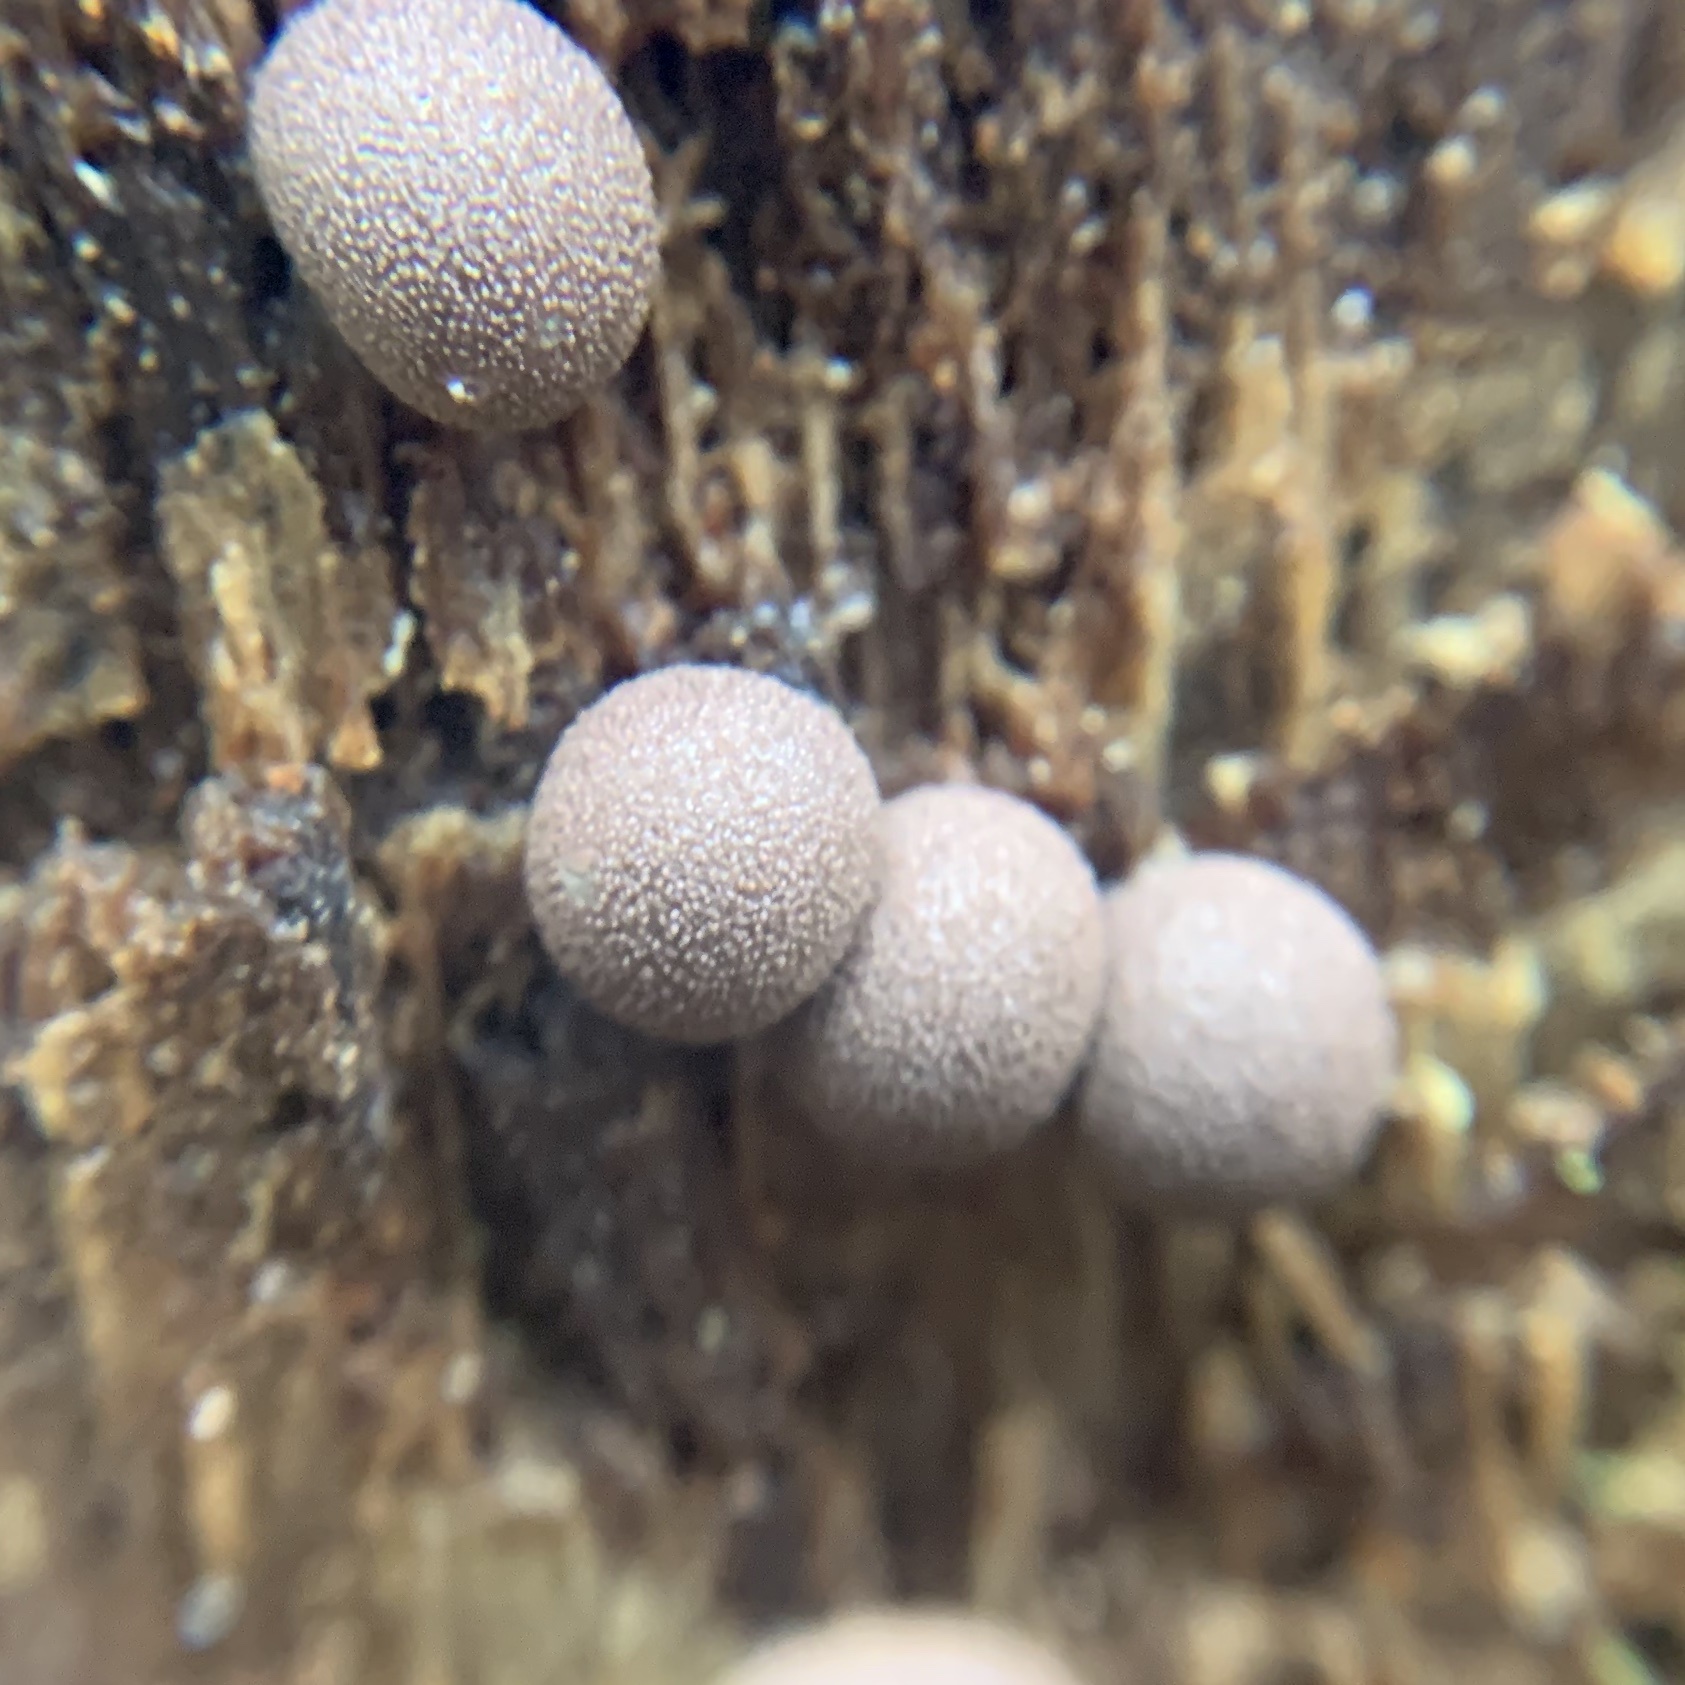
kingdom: Protozoa
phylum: Mycetozoa
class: Myxomycetes
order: Cribrariales
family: Tubiferaceae
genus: Lycogala
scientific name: Lycogala epidendrum
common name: Wolf's milk
